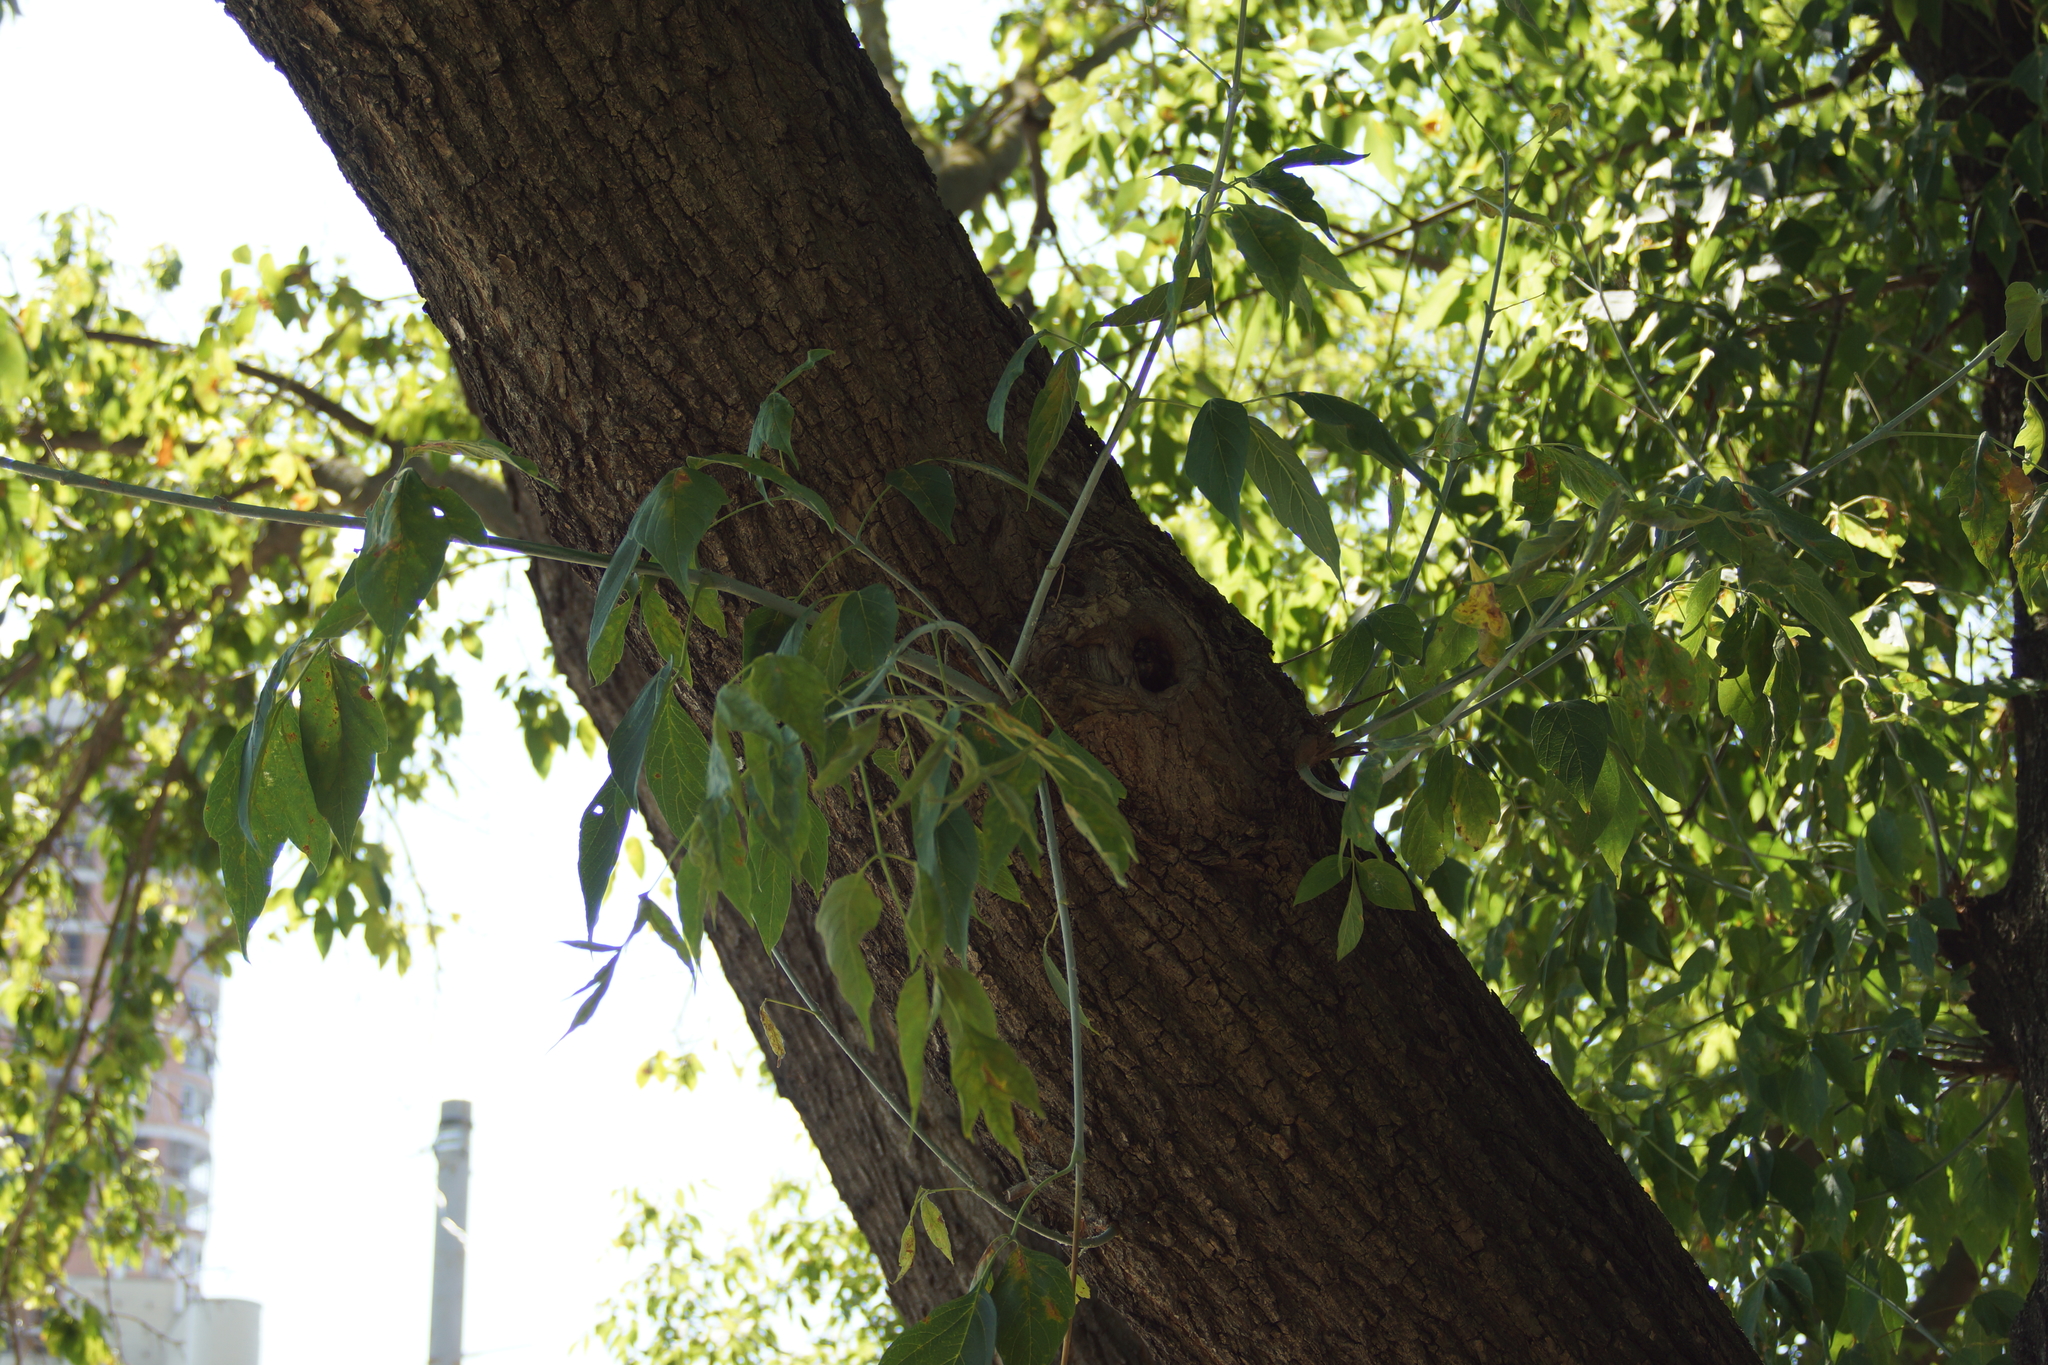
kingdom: Plantae
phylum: Tracheophyta
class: Magnoliopsida
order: Sapindales
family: Sapindaceae
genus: Acer
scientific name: Acer negundo
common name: Ashleaf maple
